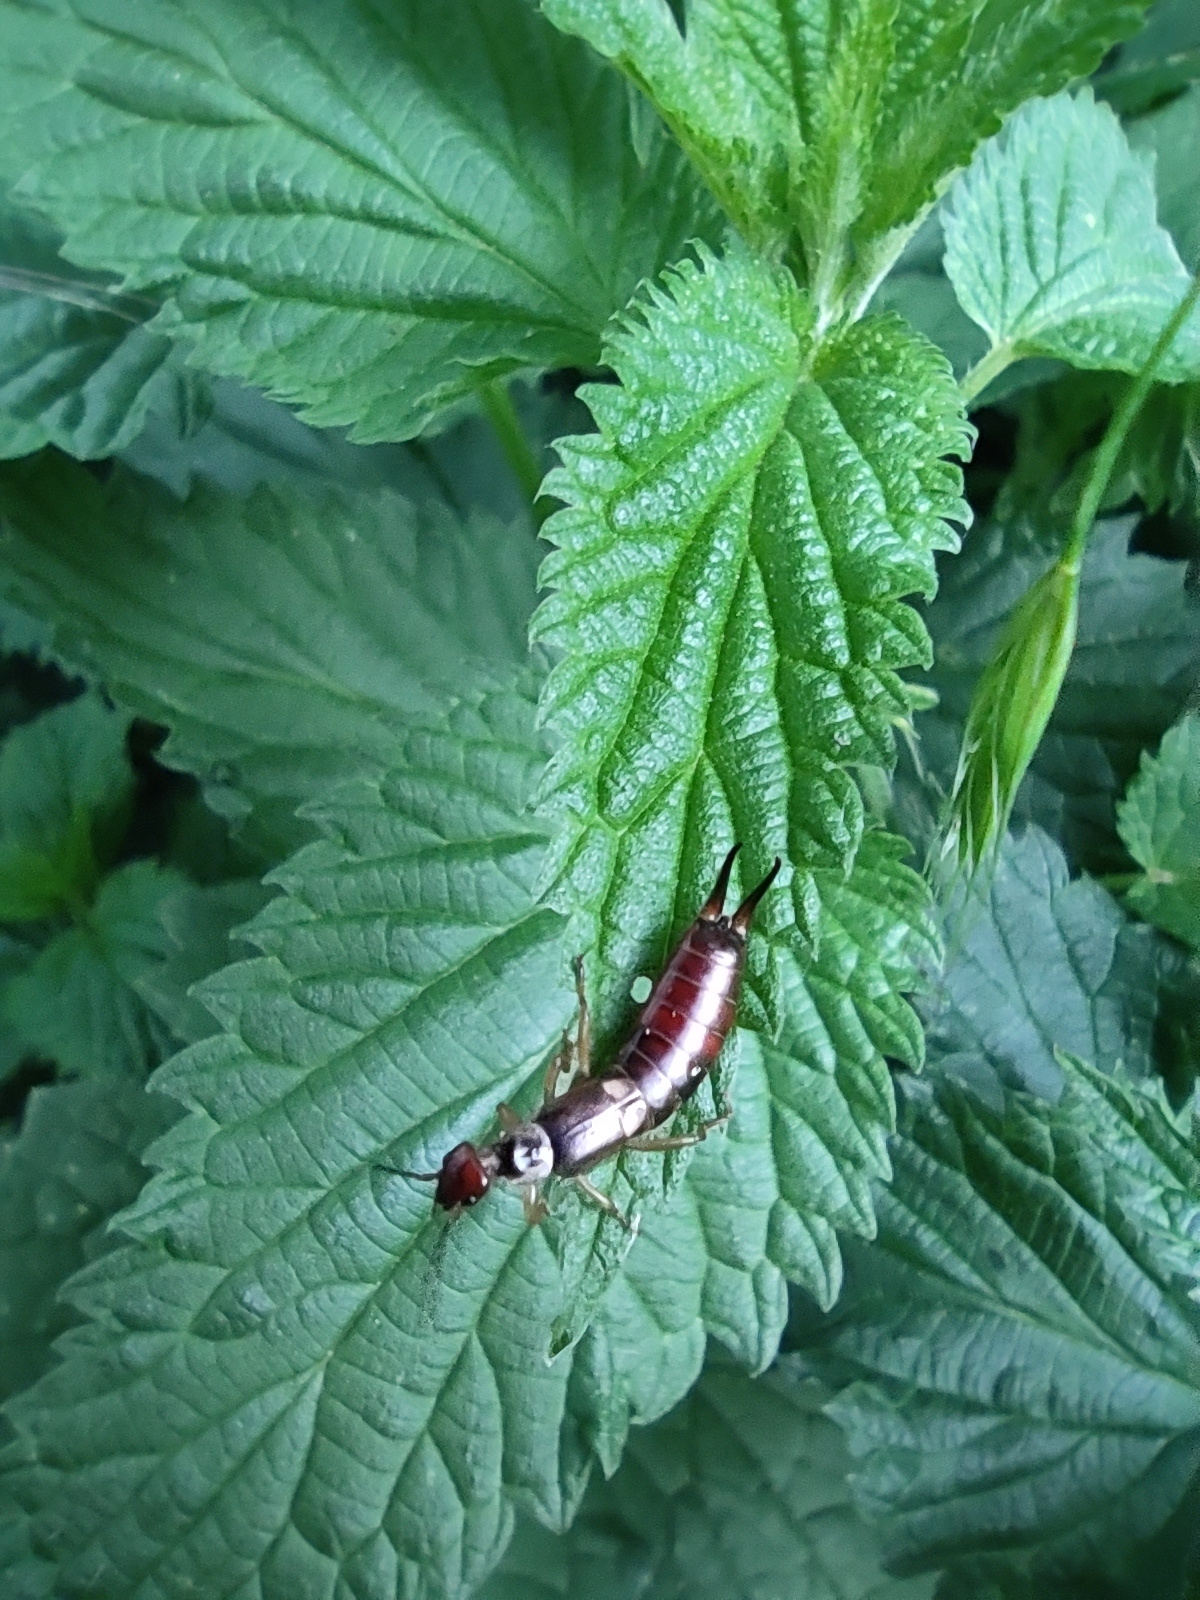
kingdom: Animalia
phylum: Arthropoda
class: Insecta
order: Dermaptera
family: Forficulidae
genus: Forficula
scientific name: Forficula
